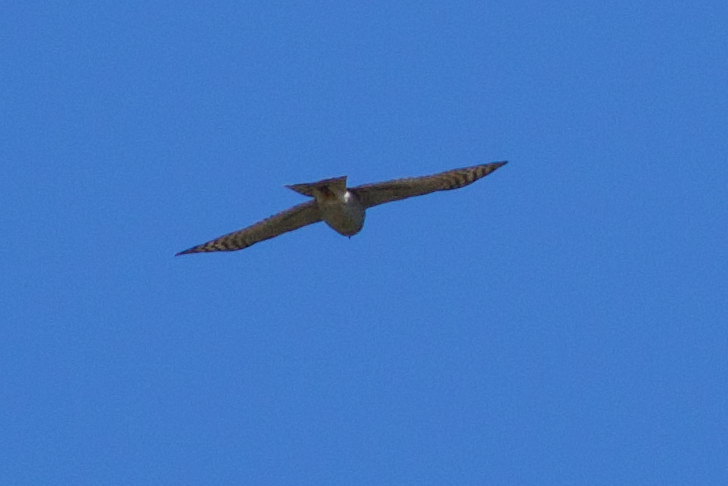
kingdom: Animalia
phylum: Chordata
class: Aves
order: Accipitriformes
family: Accipitridae
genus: Accipiter
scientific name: Accipiter nisus
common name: Eurasian sparrowhawk
